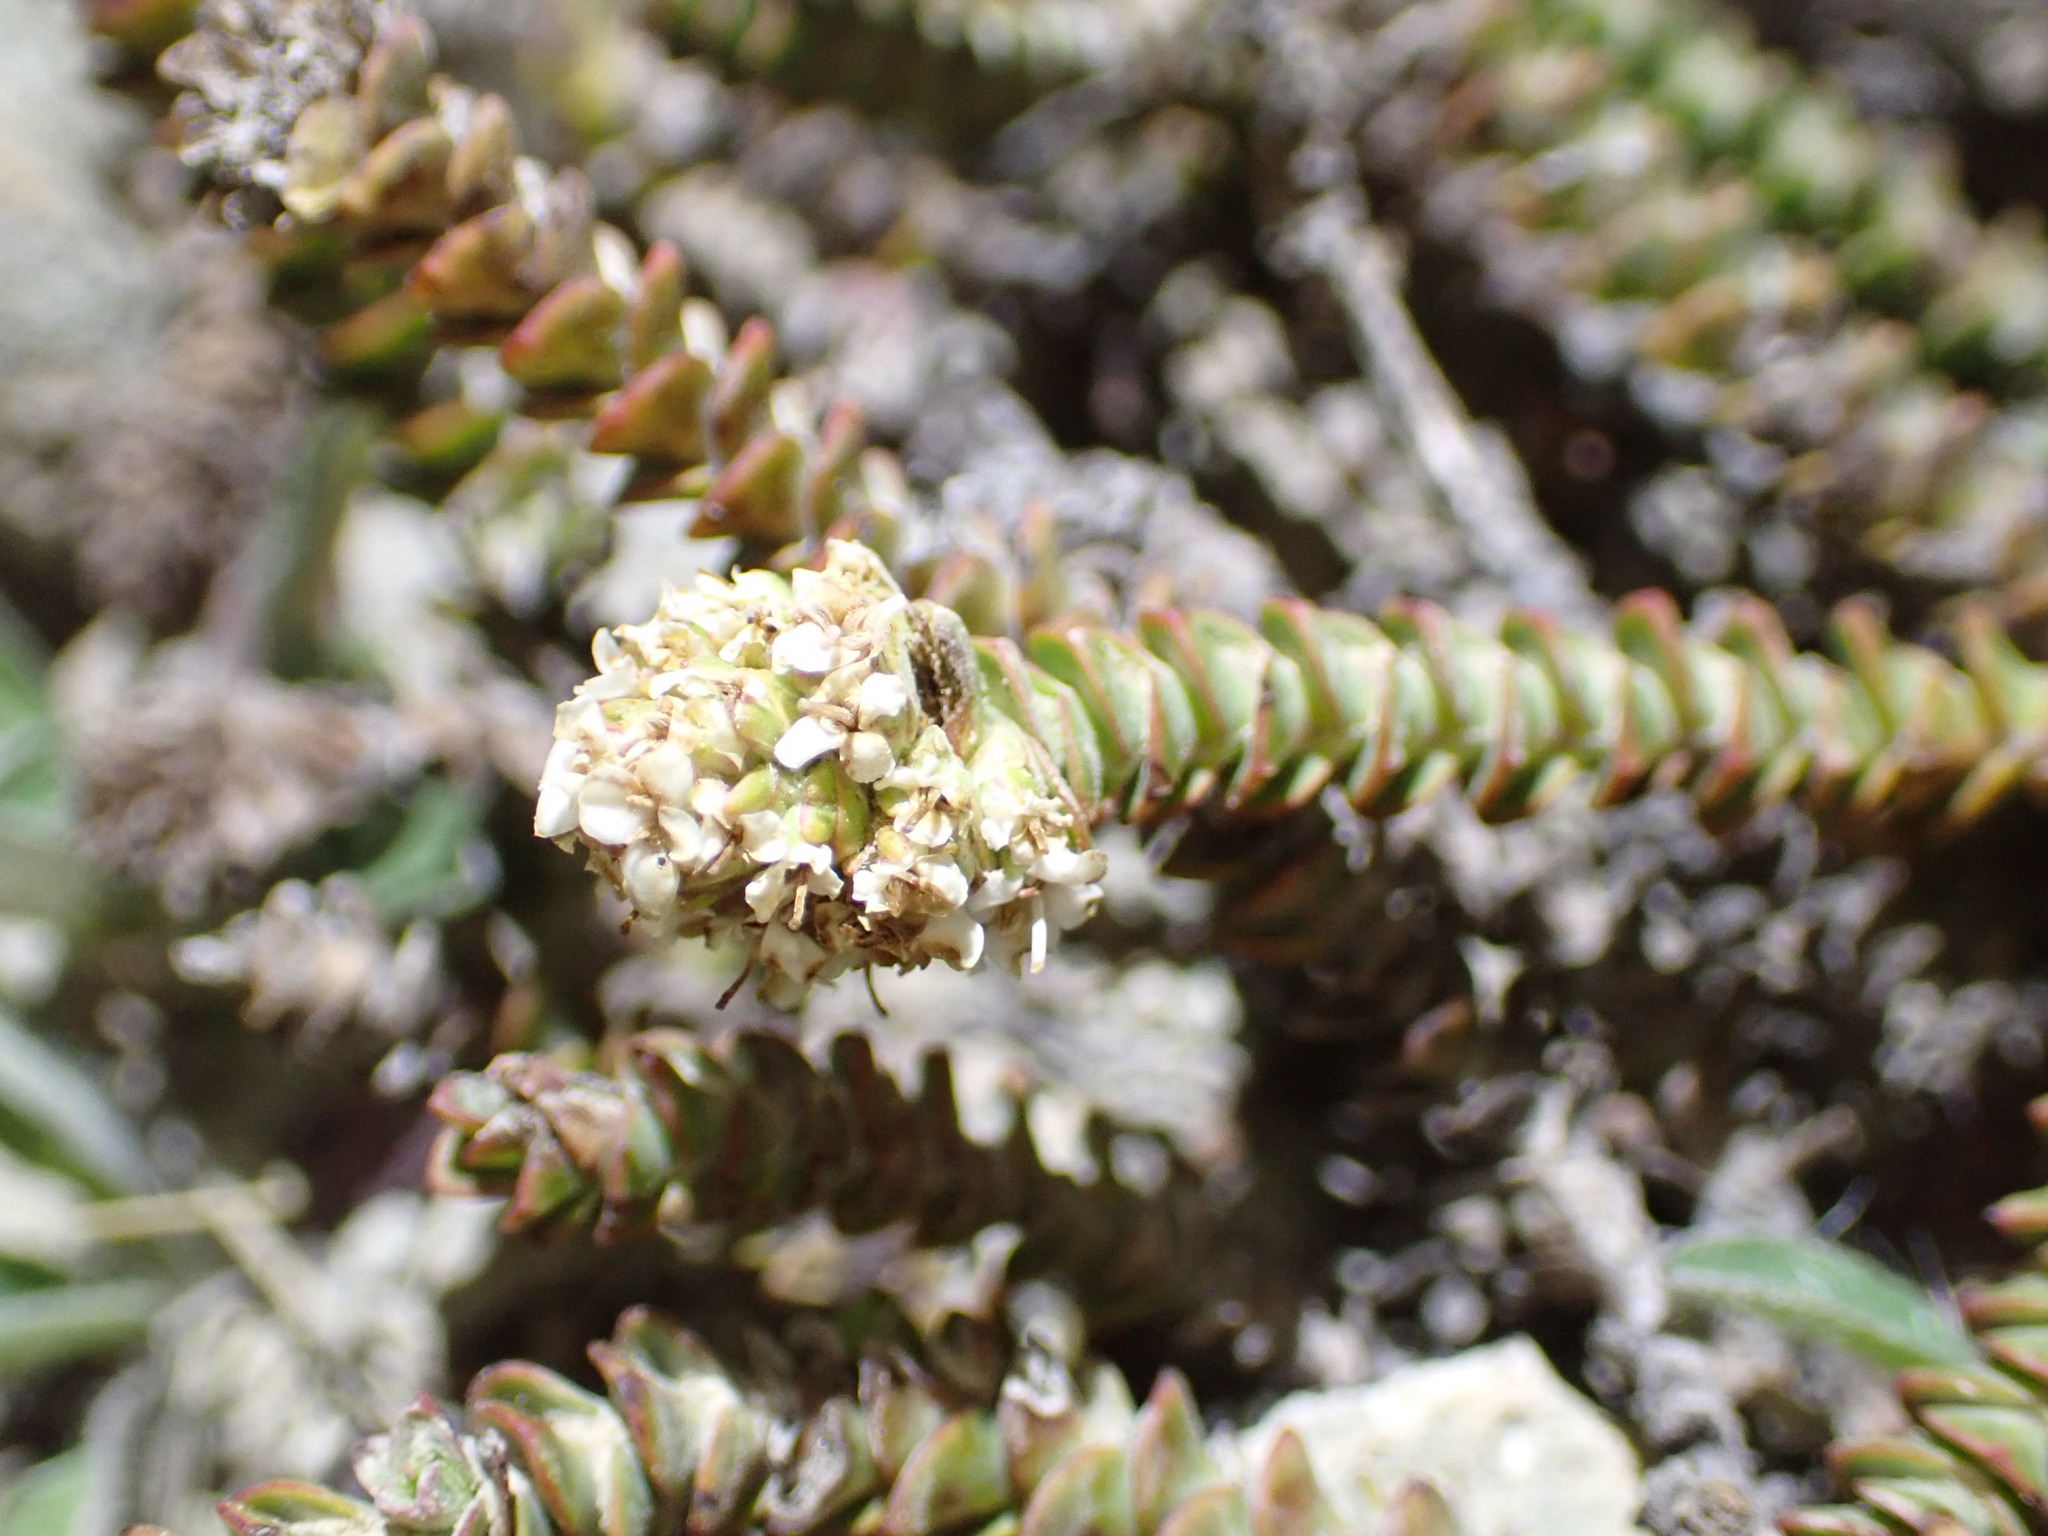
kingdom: Plantae
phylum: Tracheophyta
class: Magnoliopsida
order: Lamiales
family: Plantaginaceae
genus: Veronica
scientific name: Veronica epacridea
